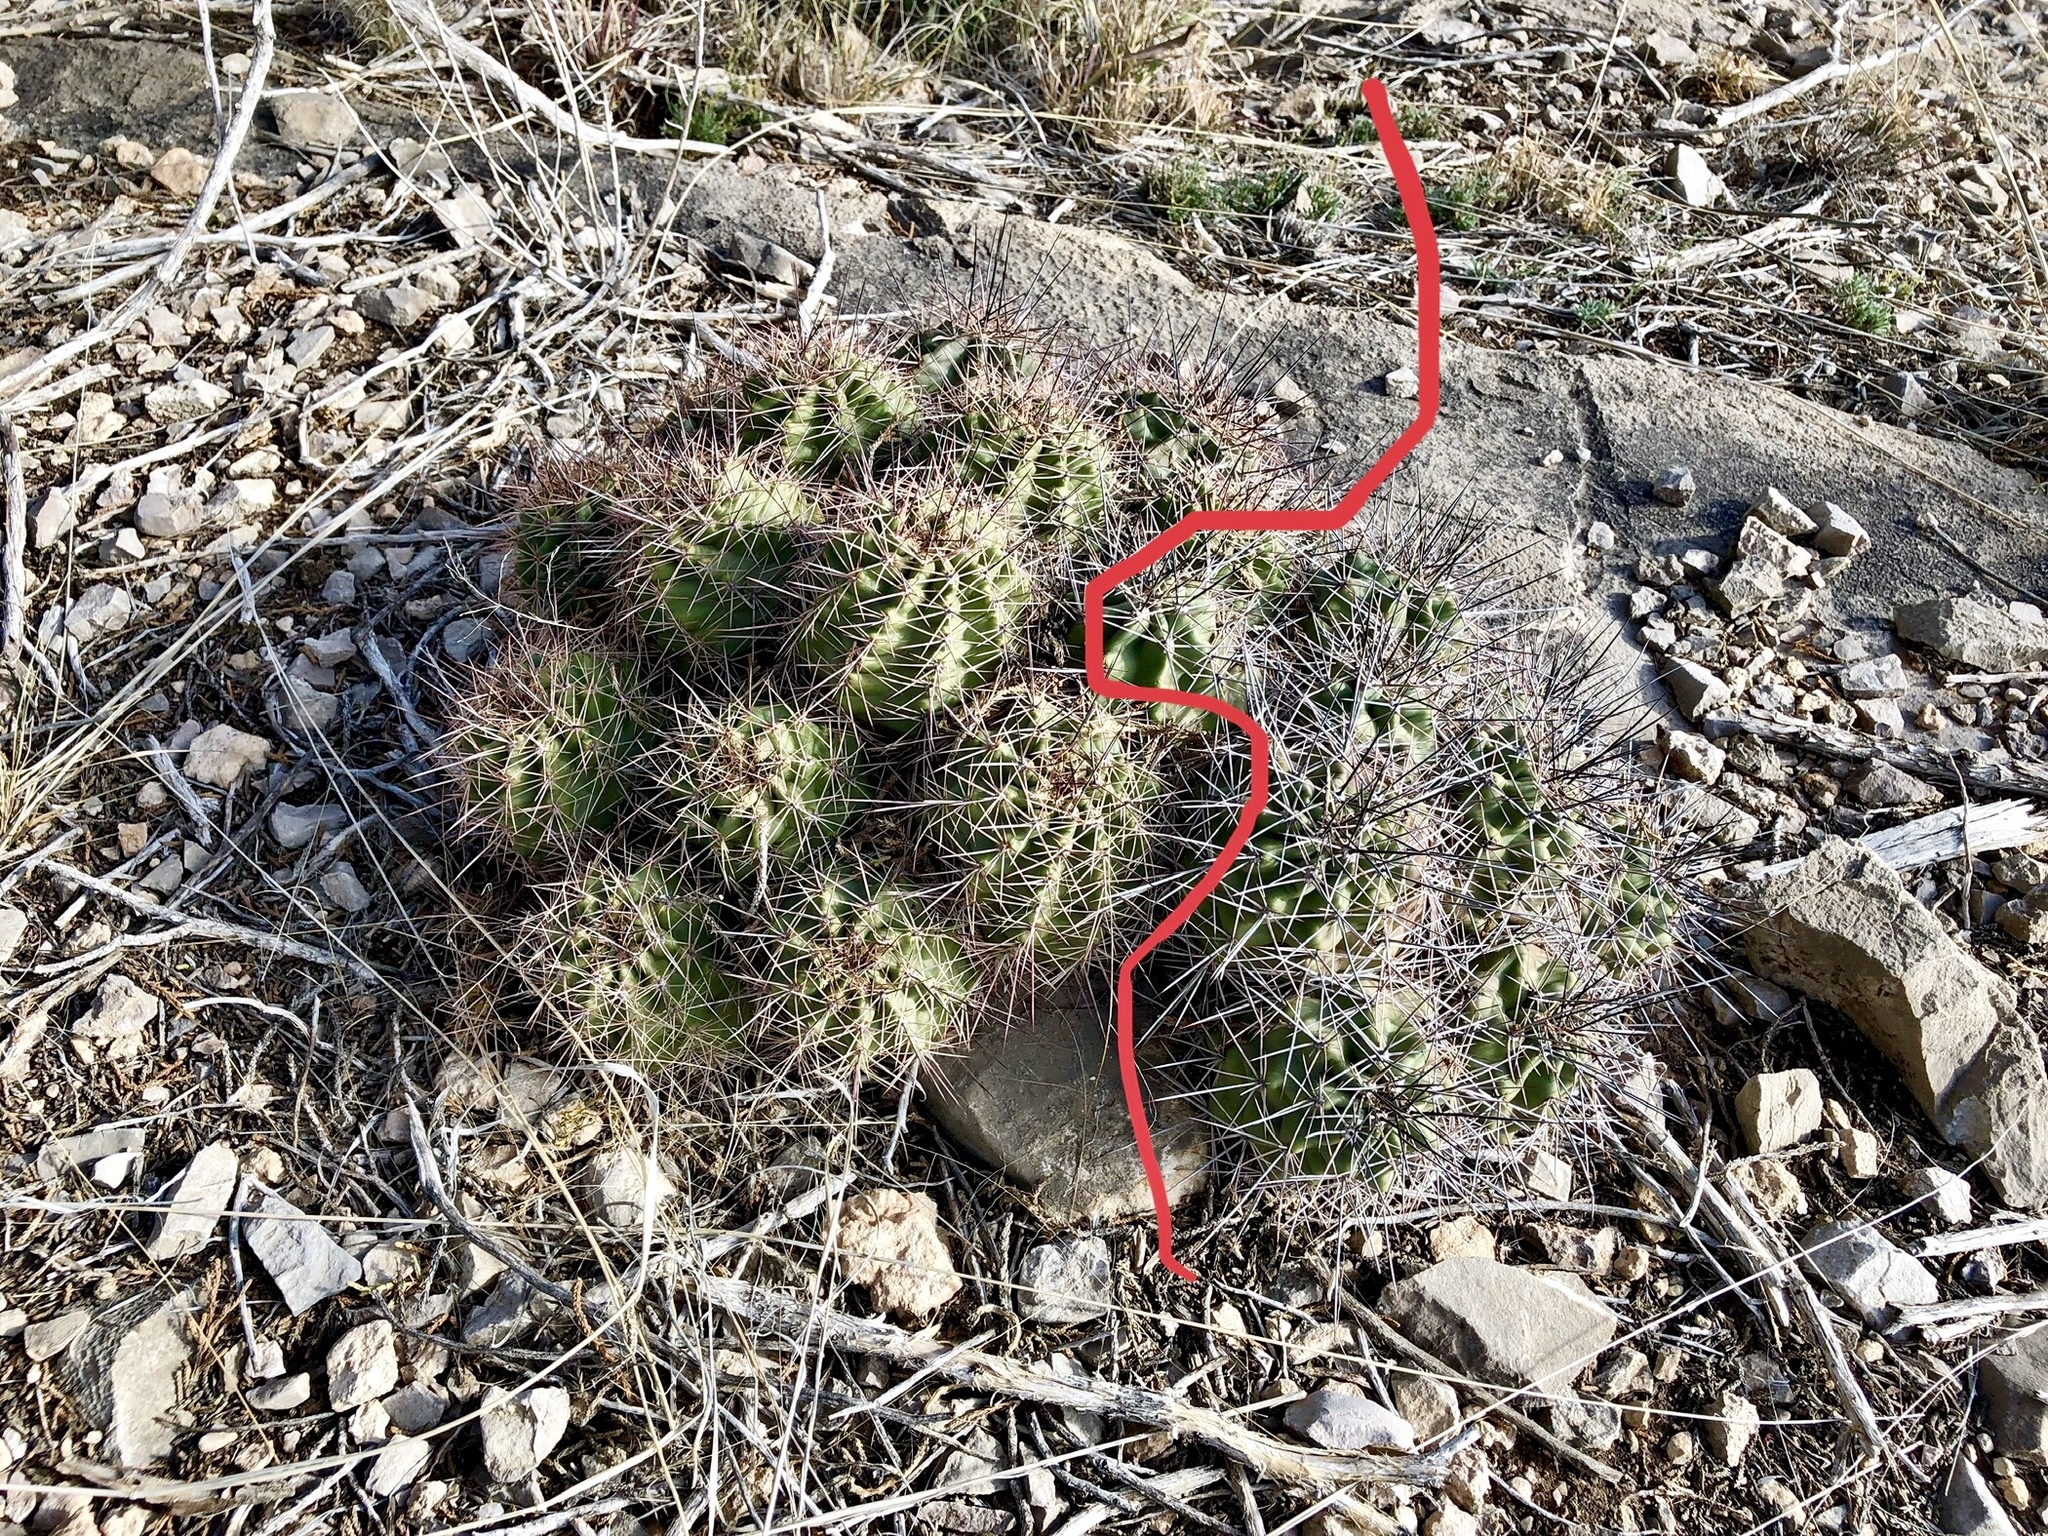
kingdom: Plantae
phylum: Tracheophyta
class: Magnoliopsida
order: Caryophyllales
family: Cactaceae
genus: Echinocereus
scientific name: Echinocereus coccineus
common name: Scarlet hedgehog cactus
